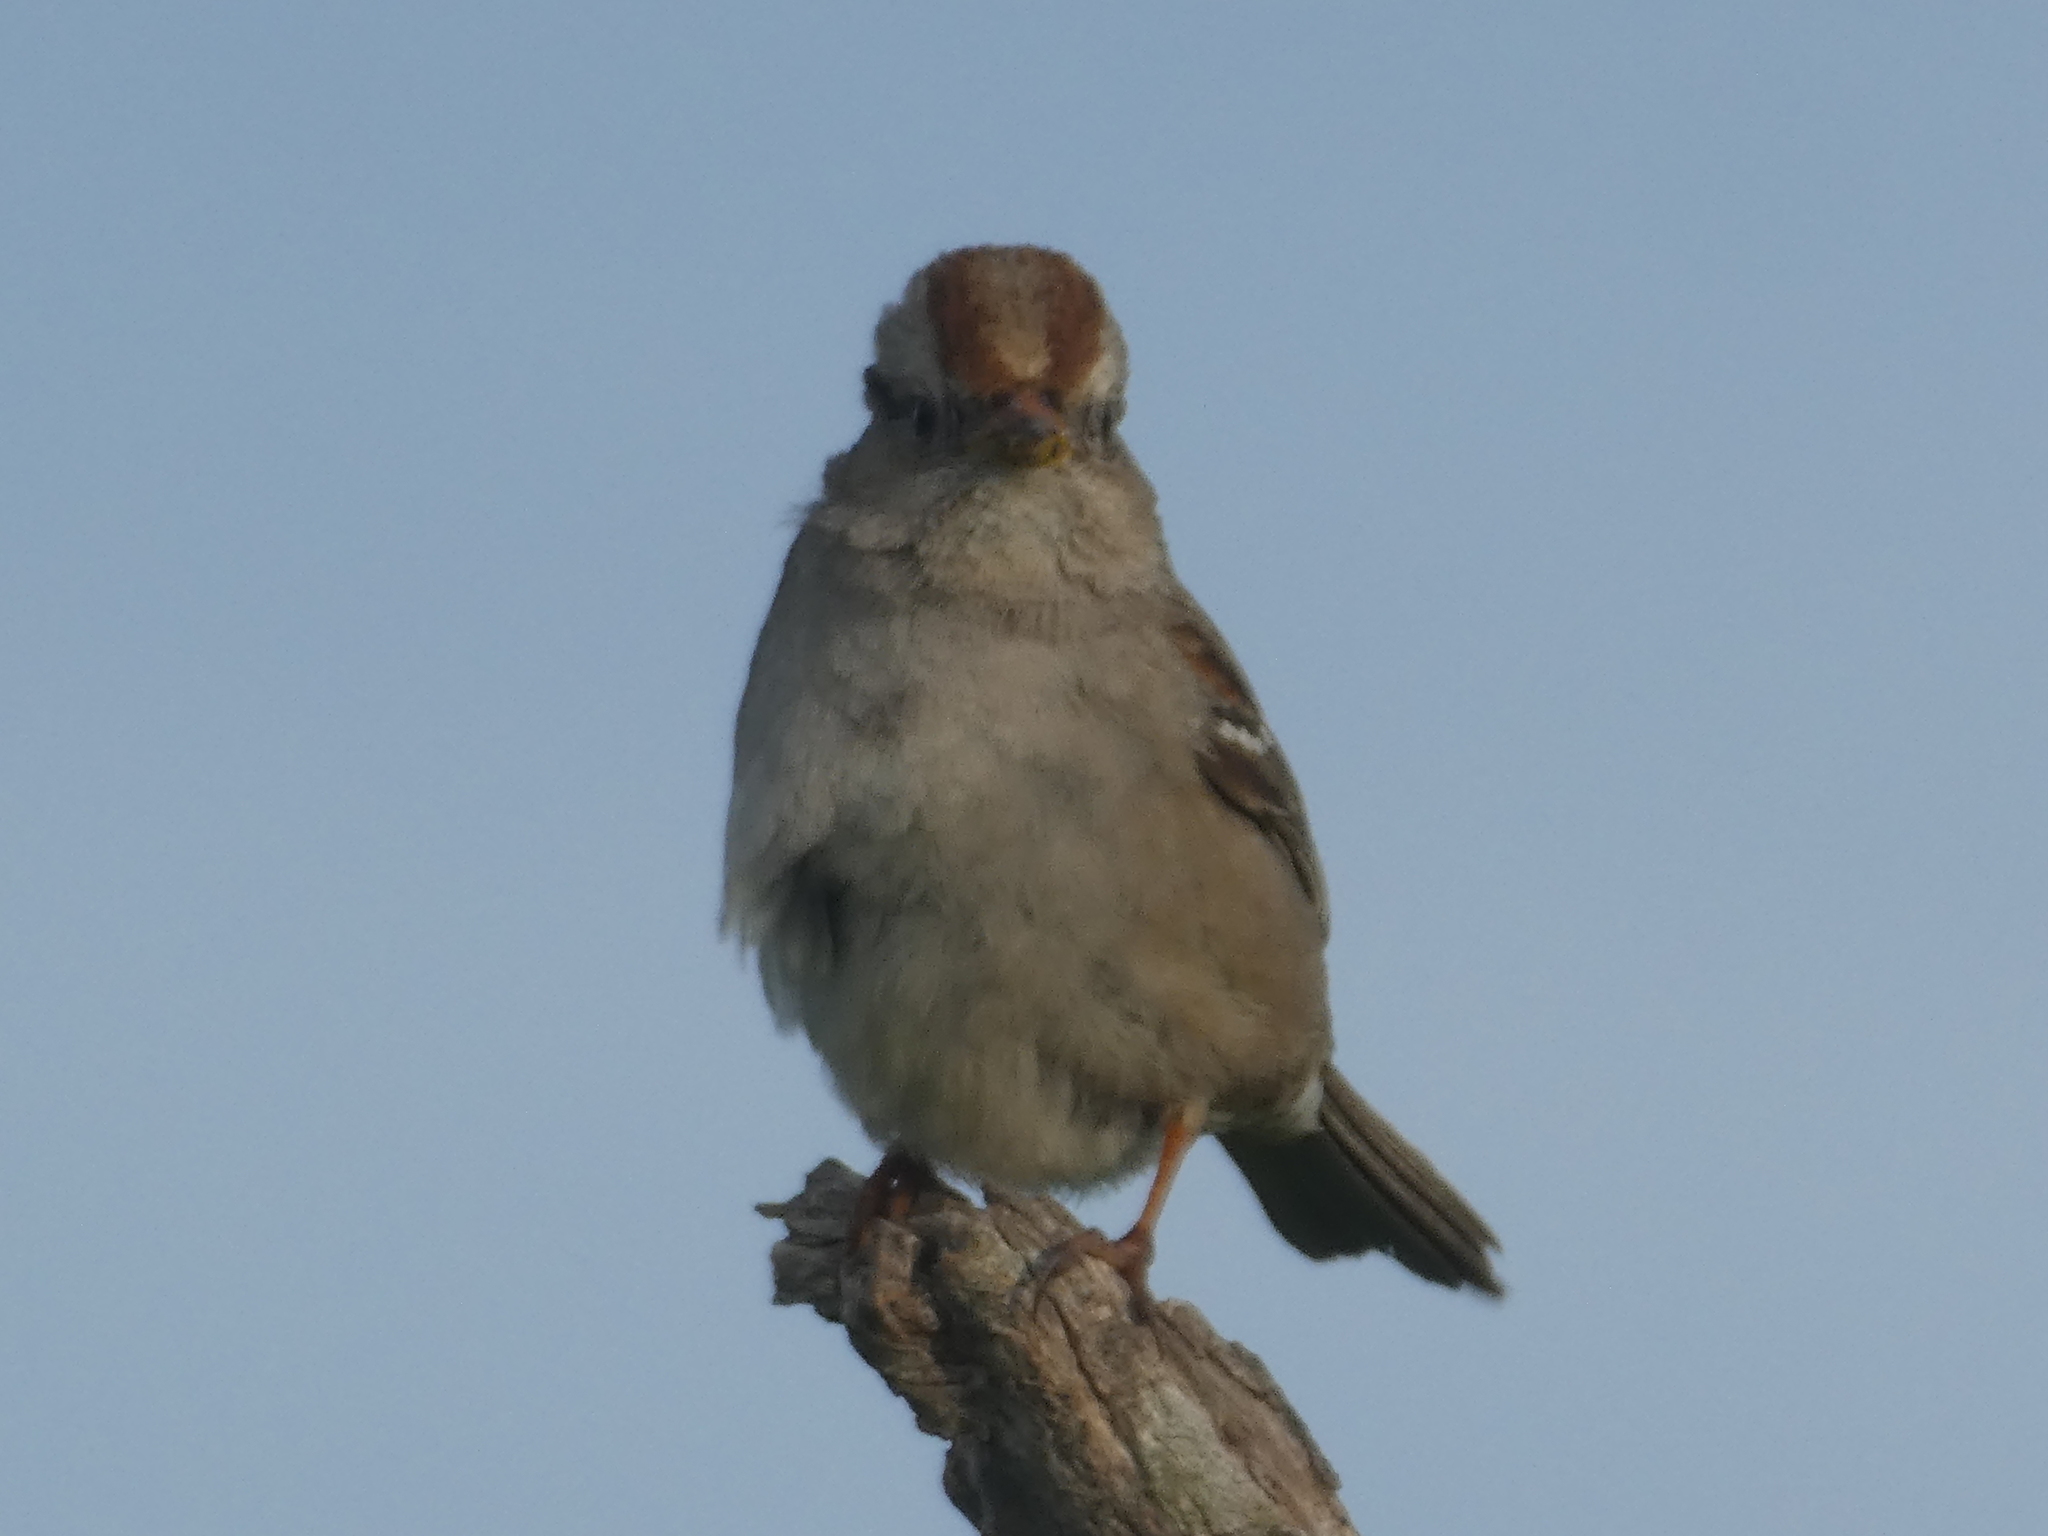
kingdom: Animalia
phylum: Chordata
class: Aves
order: Passeriformes
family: Passerellidae
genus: Zonotrichia
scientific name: Zonotrichia leucophrys
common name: White-crowned sparrow
